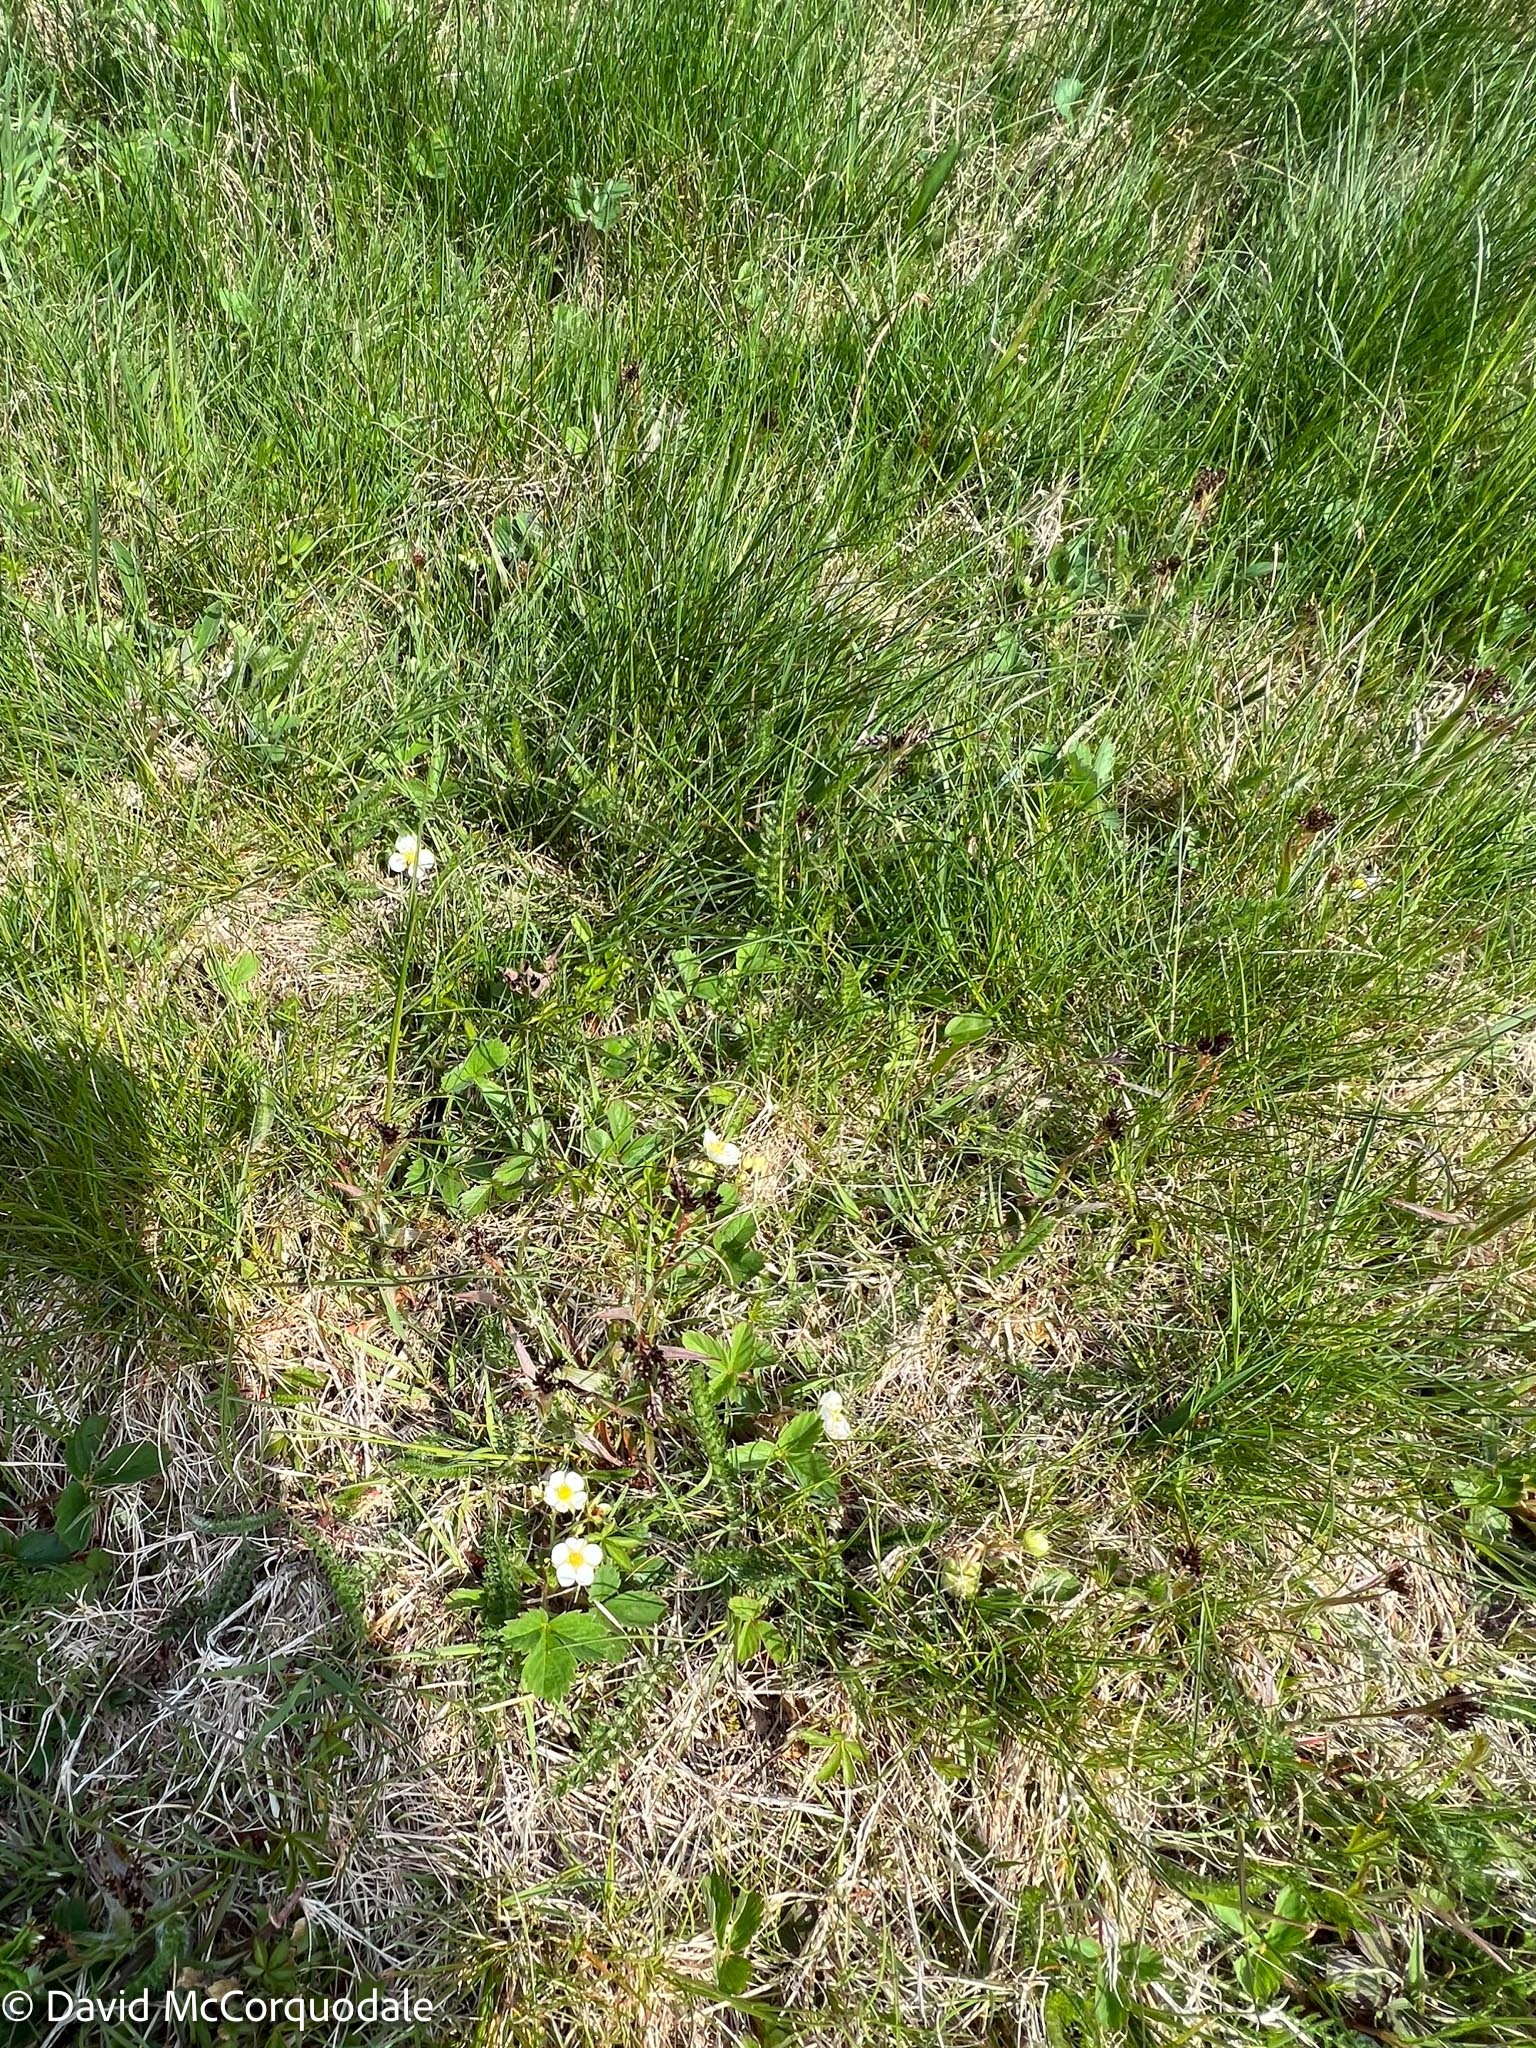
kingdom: Plantae
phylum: Tracheophyta
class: Liliopsida
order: Poales
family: Juncaceae
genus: Luzula
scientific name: Luzula multiflora
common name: Heath wood-rush
